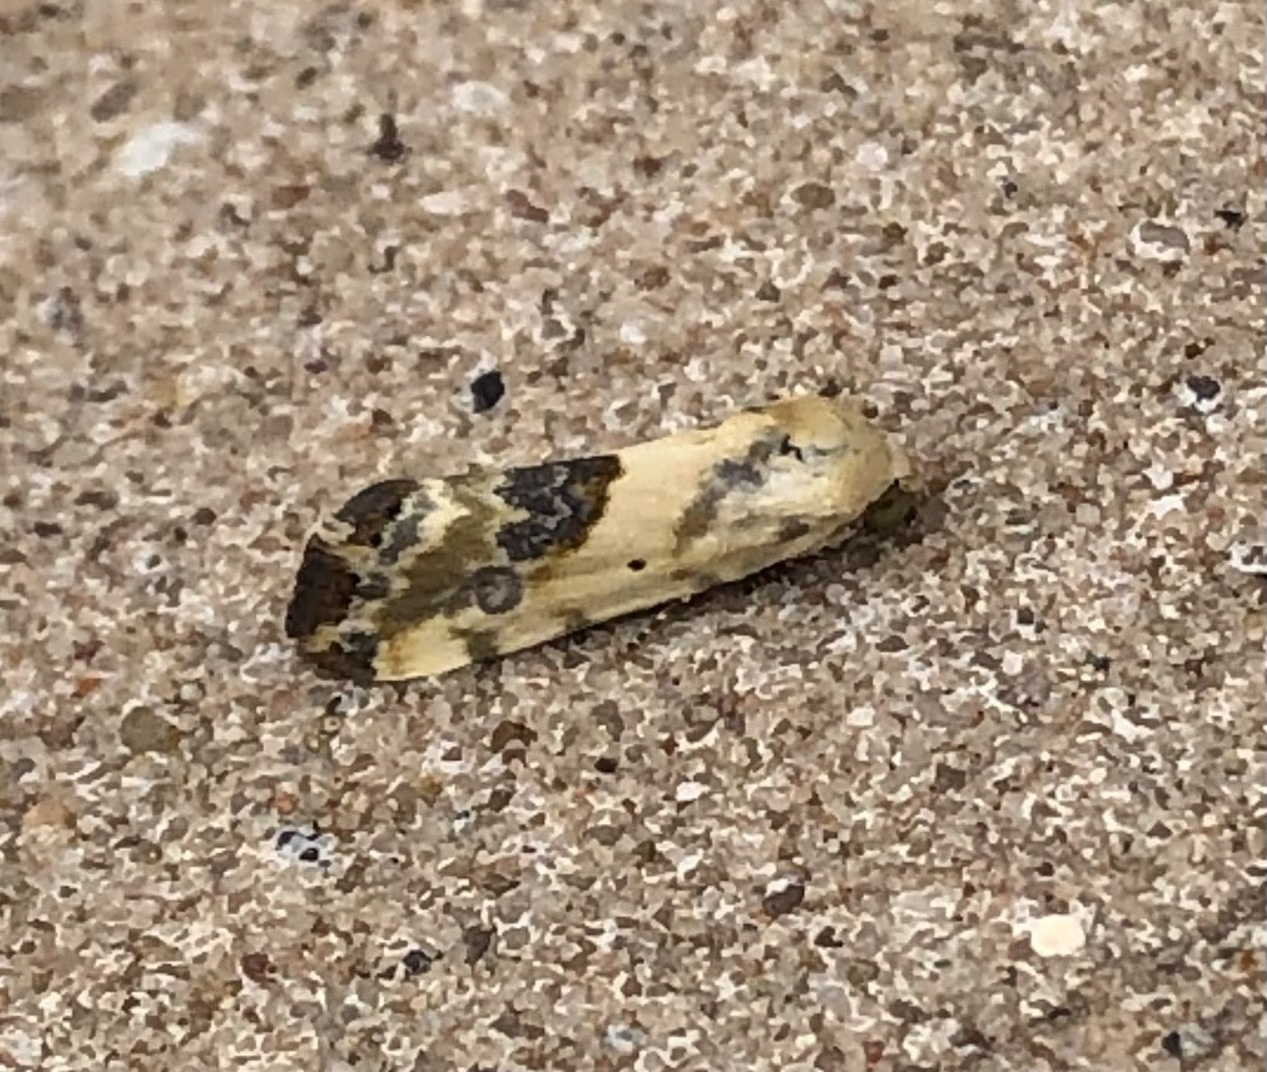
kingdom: Animalia
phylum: Arthropoda
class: Insecta
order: Lepidoptera
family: Noctuidae
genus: Acontia
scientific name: Acontia libedis
